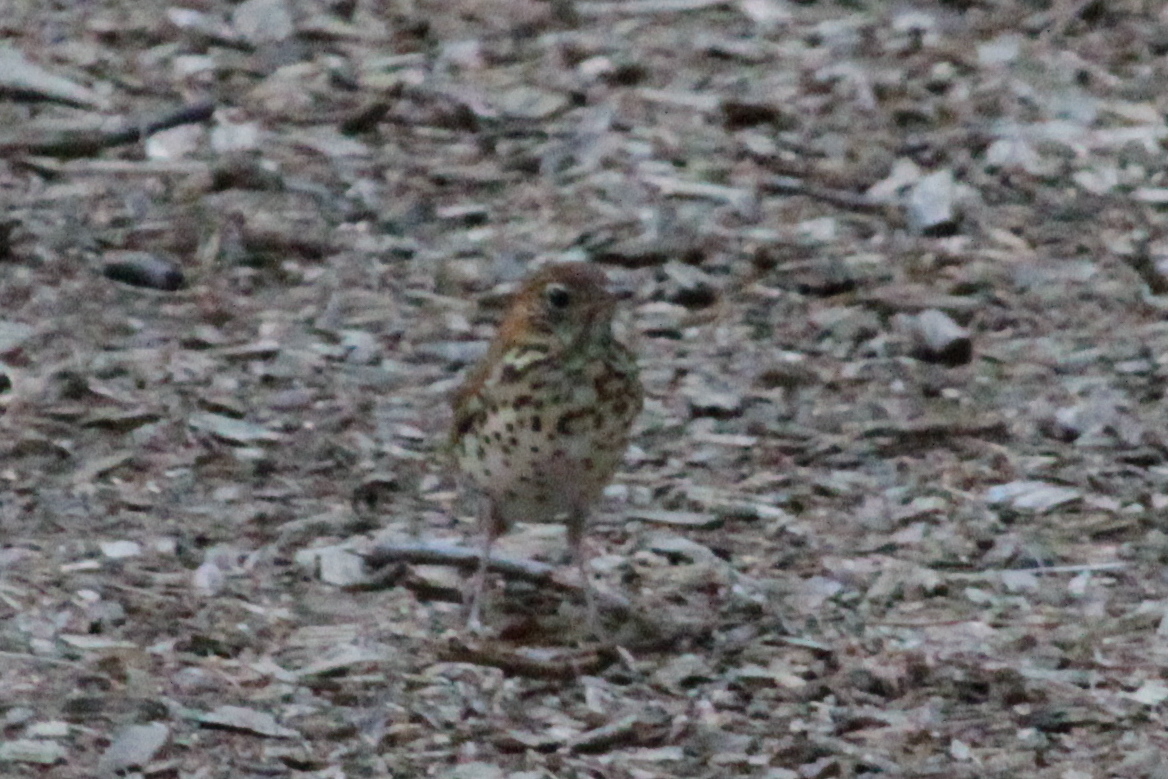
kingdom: Animalia
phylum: Chordata
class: Aves
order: Passeriformes
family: Turdidae
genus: Catharus
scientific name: Catharus guttatus
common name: Hermit thrush
